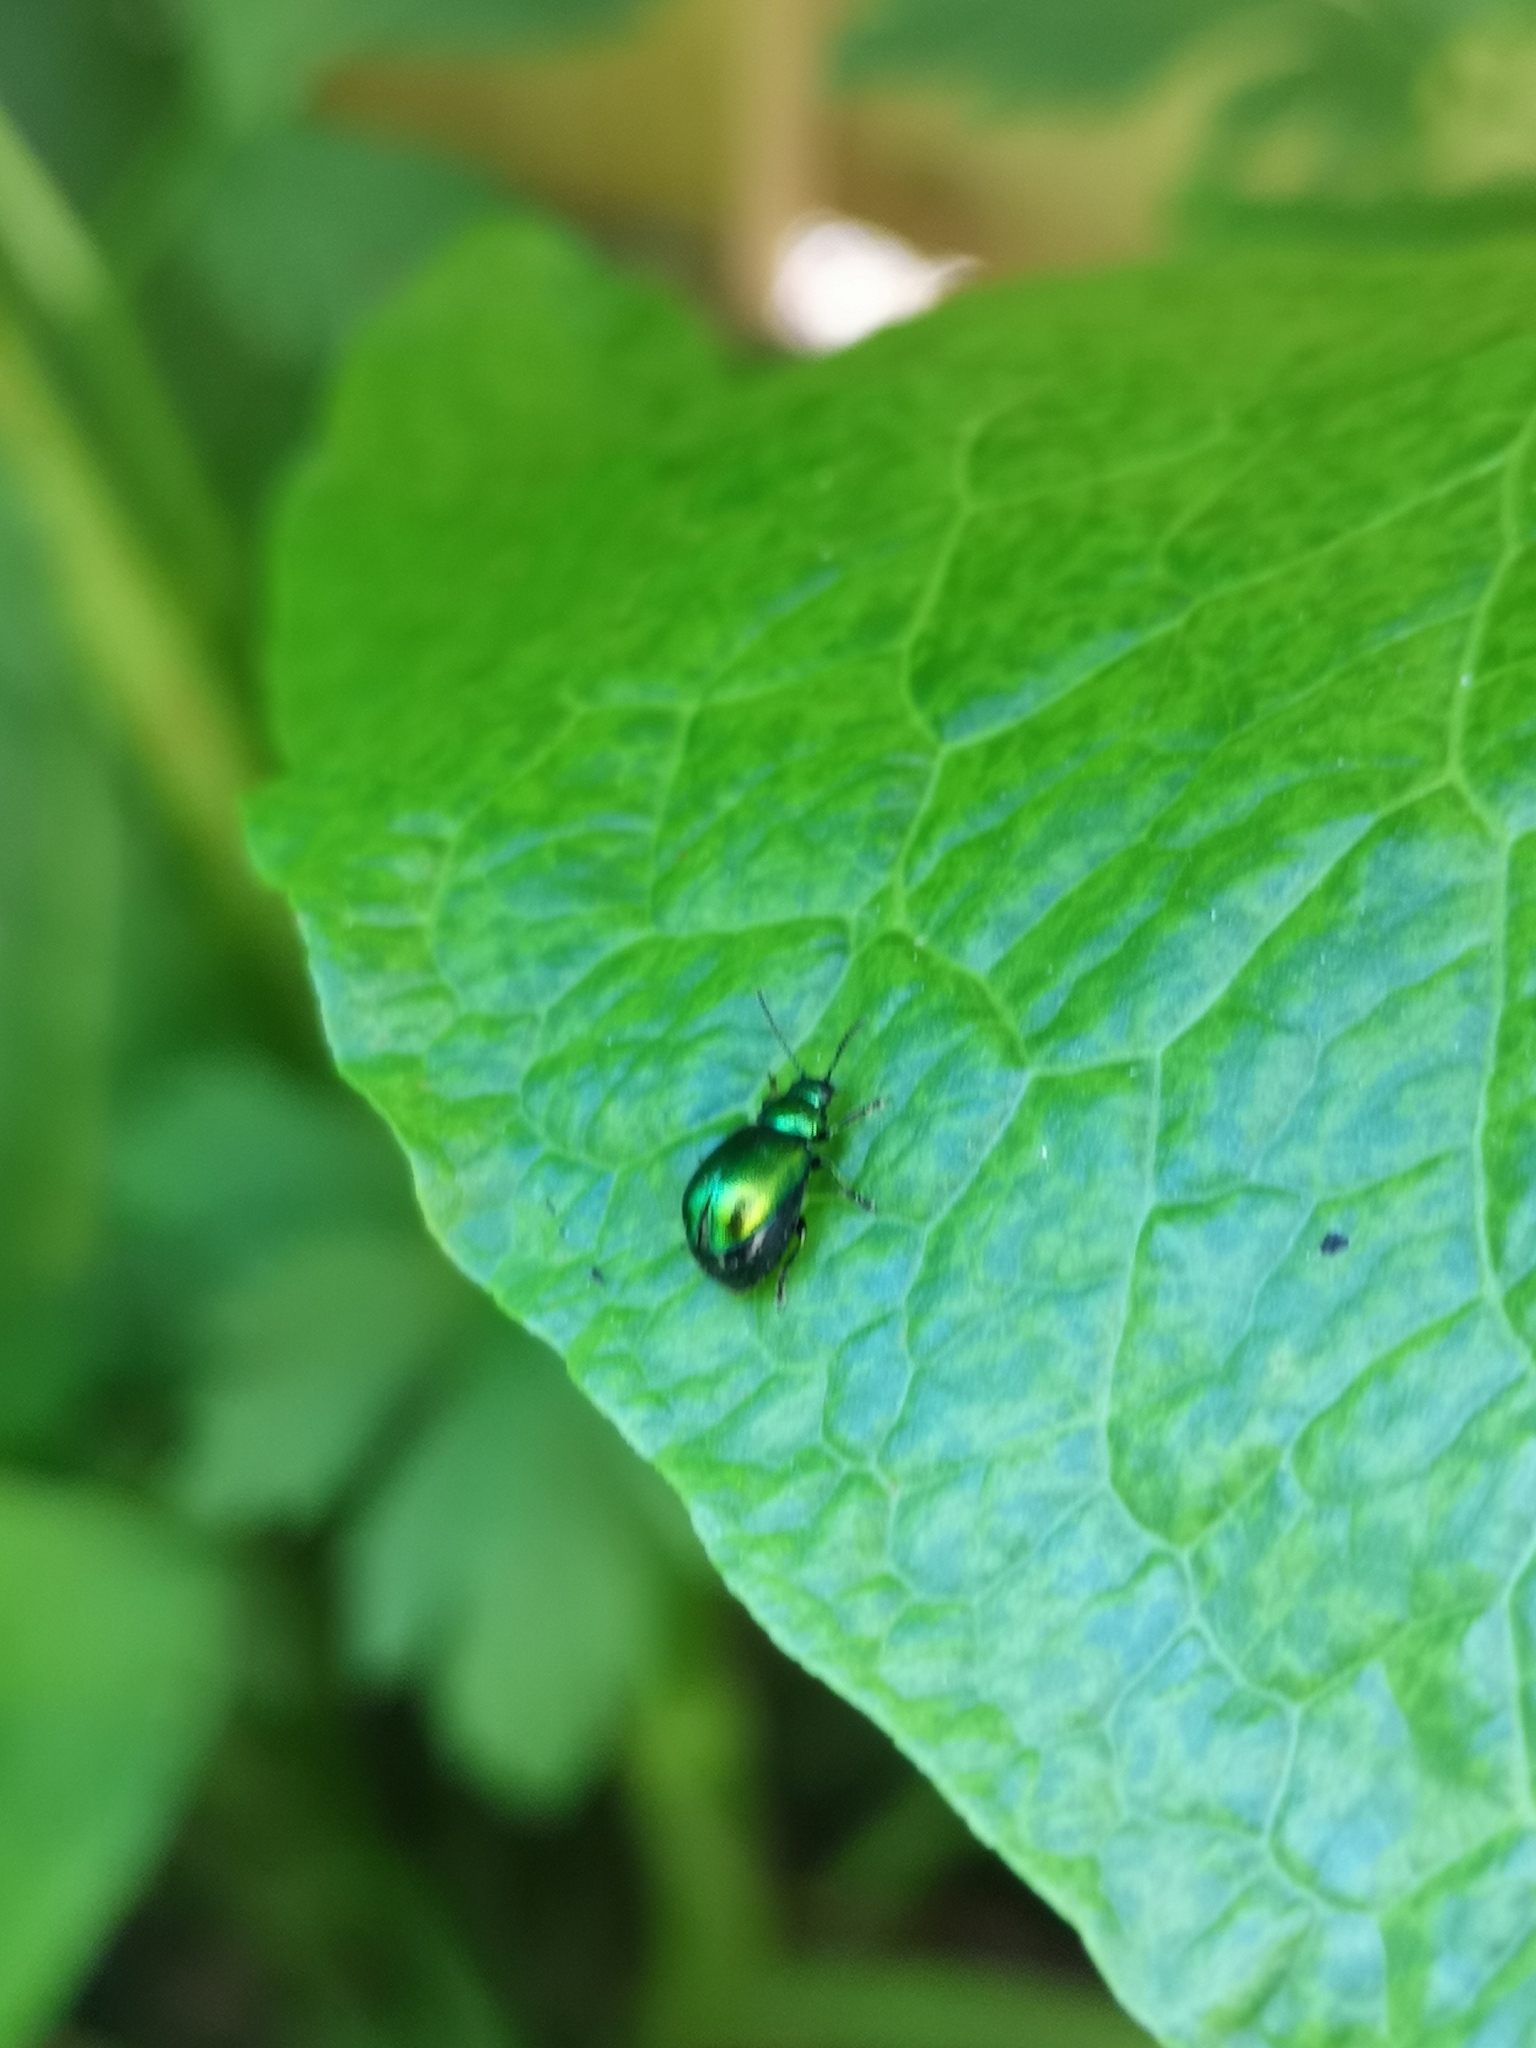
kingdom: Animalia
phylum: Arthropoda
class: Insecta
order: Coleoptera
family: Chrysomelidae
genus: Gastrophysa
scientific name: Gastrophysa viridula
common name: Green dock beetle
